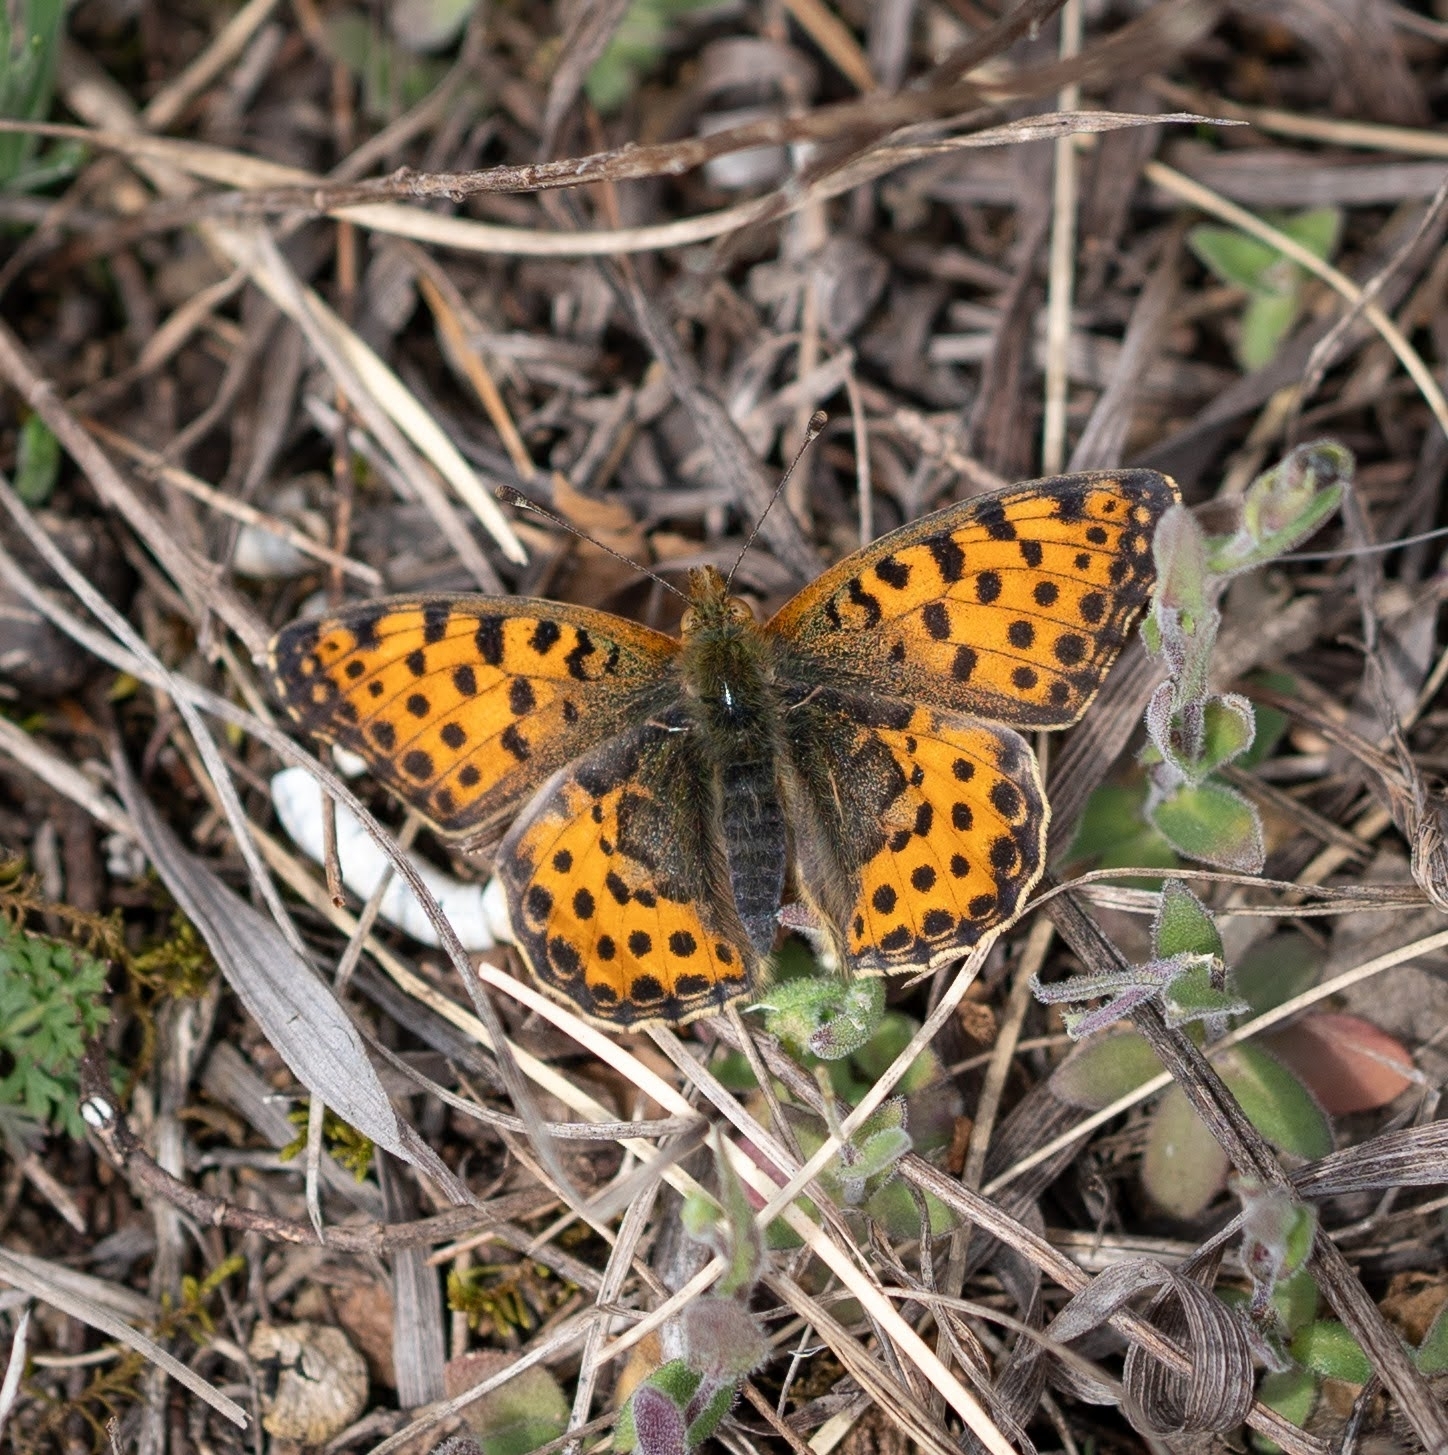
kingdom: Animalia
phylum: Arthropoda
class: Insecta
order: Lepidoptera
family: Nymphalidae
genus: Issoria
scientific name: Issoria lathonia
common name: Queen of spain fritillary
